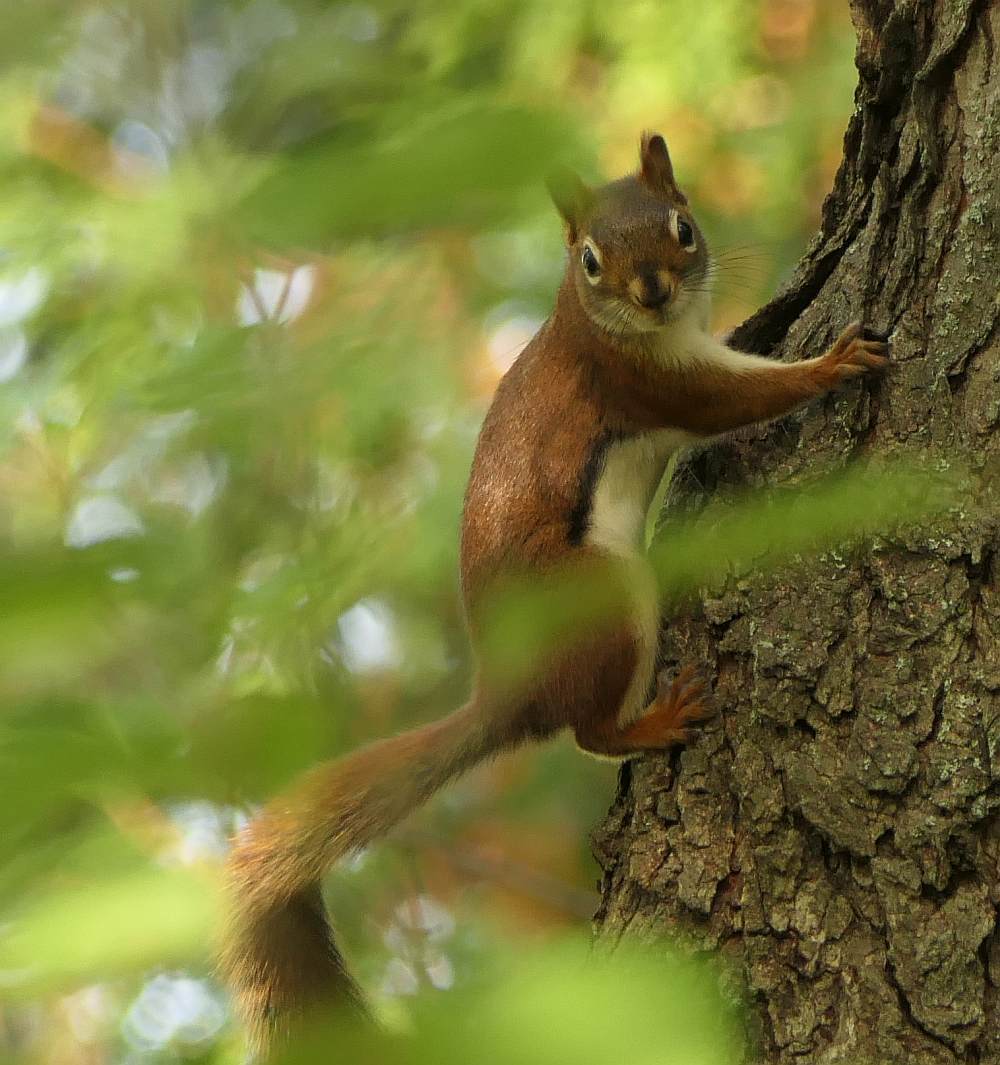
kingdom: Animalia
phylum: Chordata
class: Mammalia
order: Rodentia
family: Sciuridae
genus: Tamiasciurus
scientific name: Tamiasciurus hudsonicus
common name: Red squirrel
